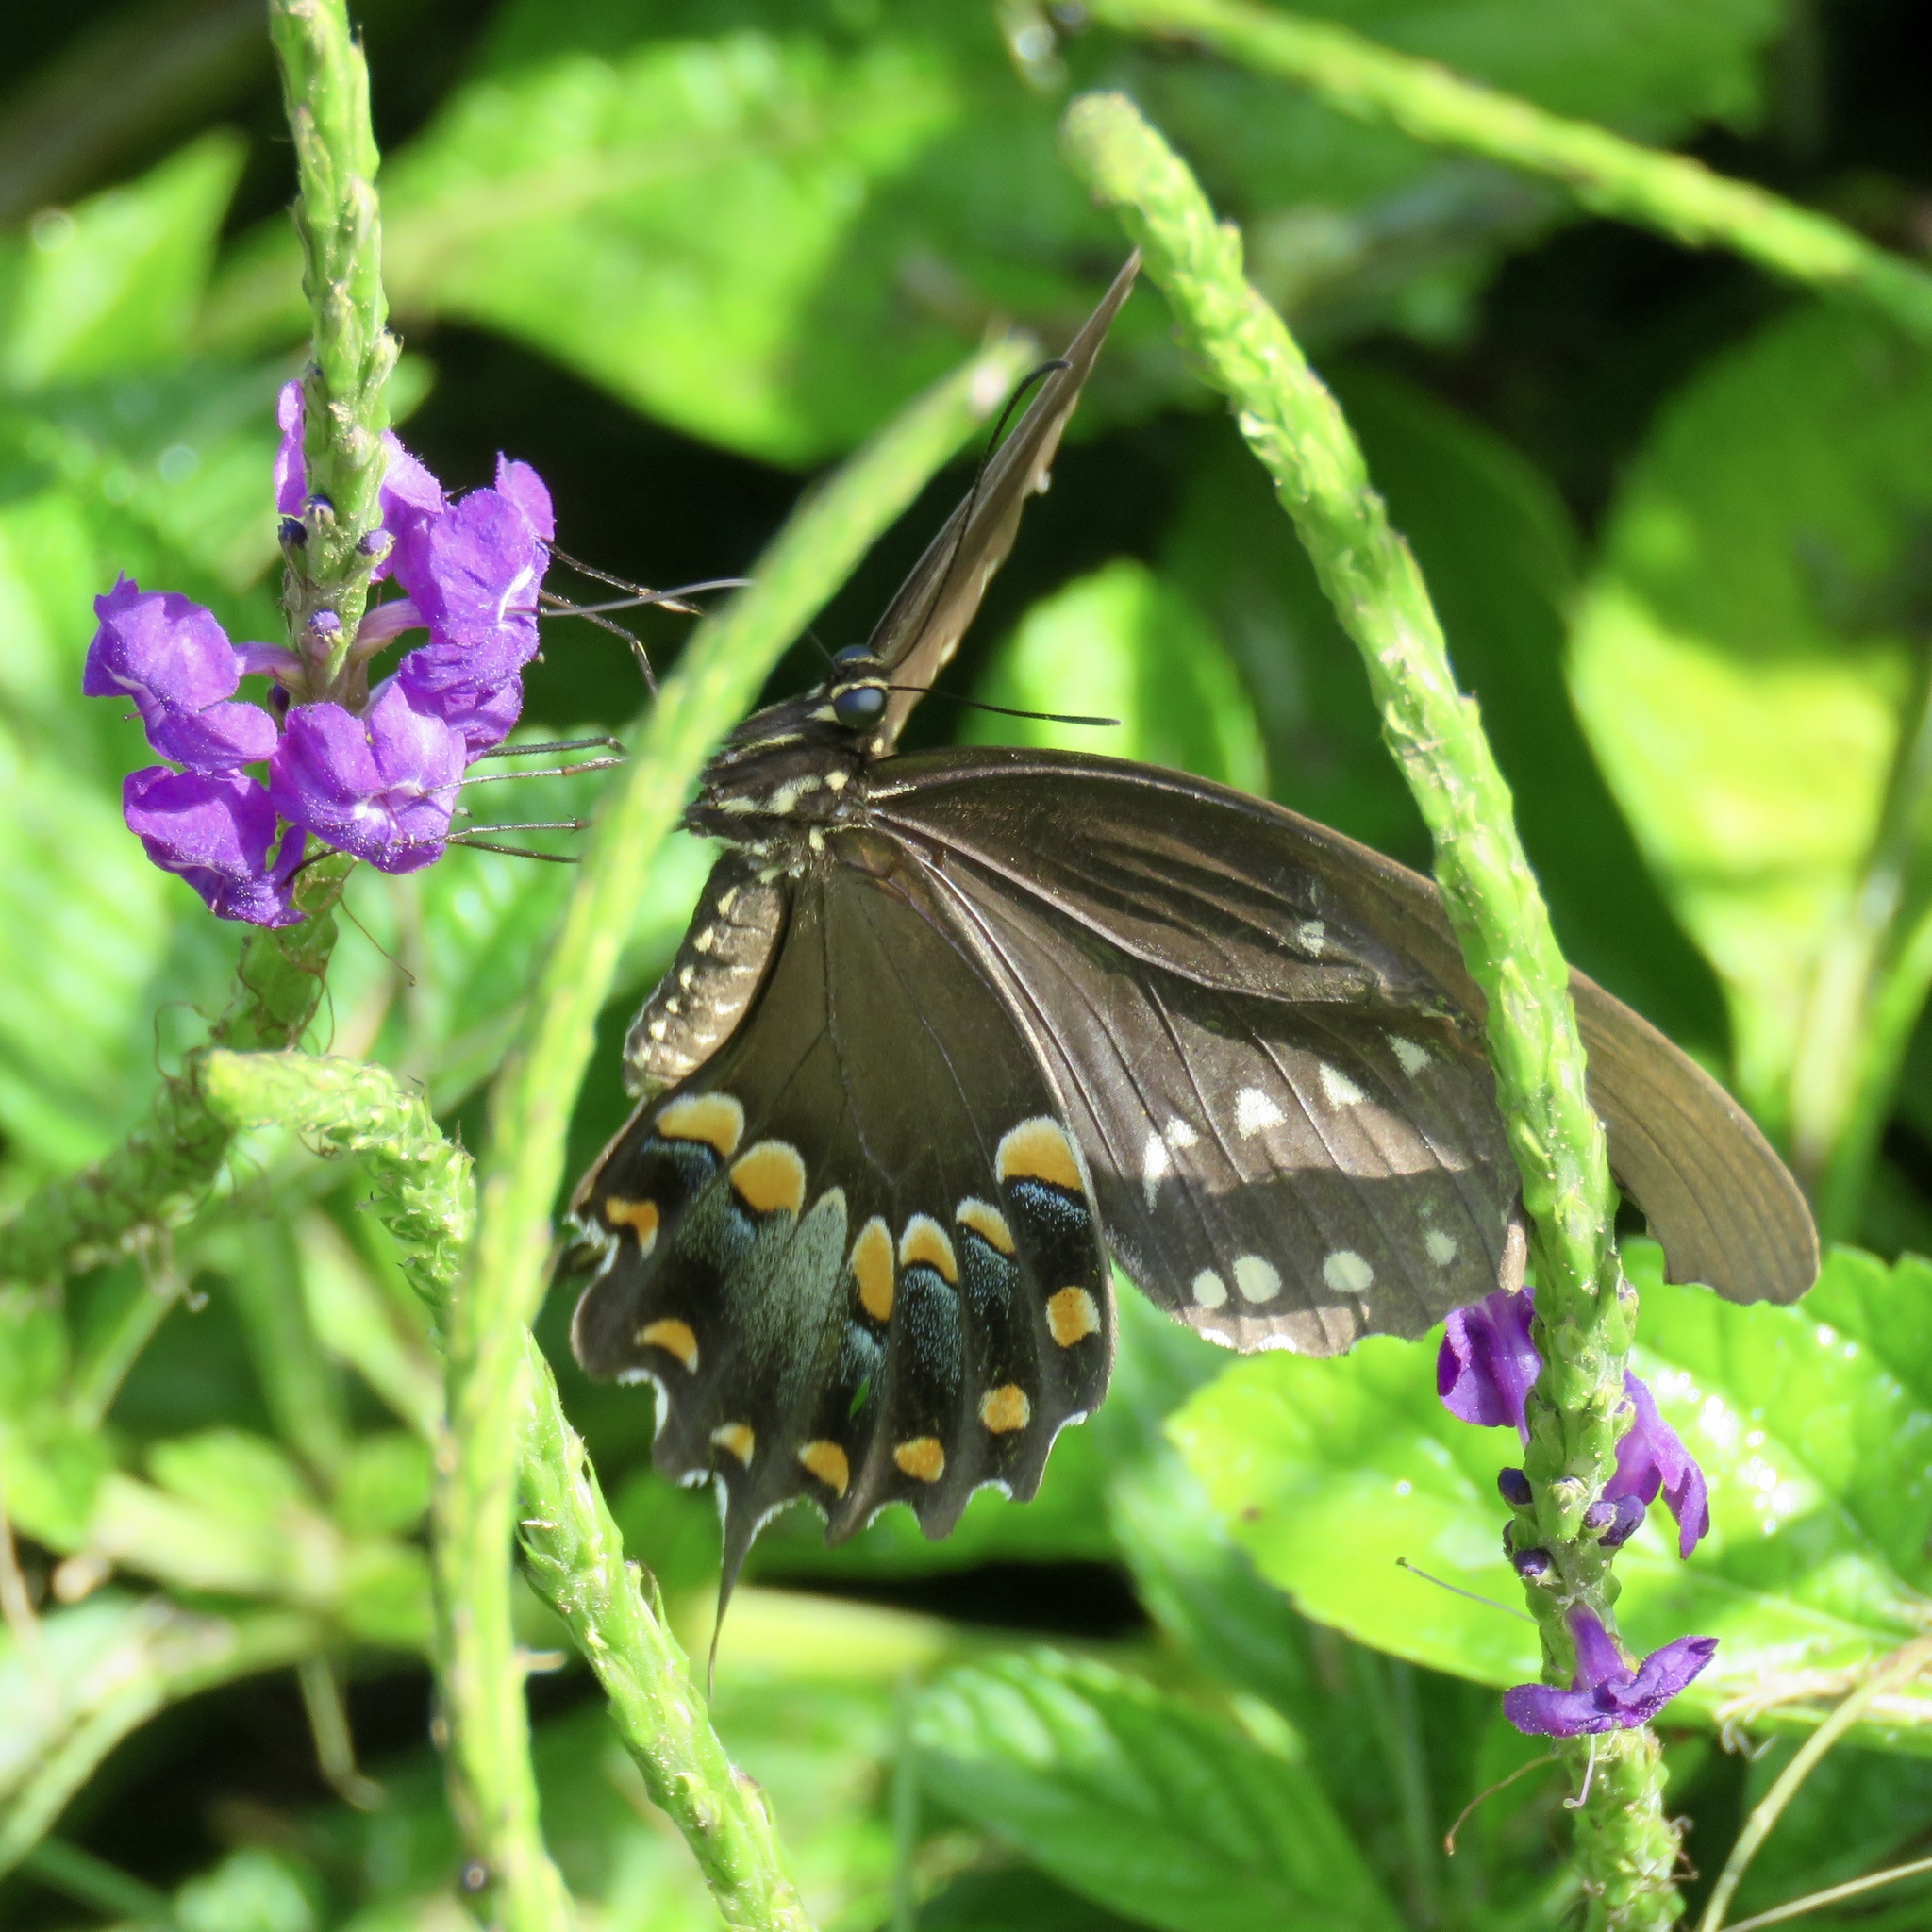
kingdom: Animalia
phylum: Arthropoda
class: Insecta
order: Lepidoptera
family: Papilionidae
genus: Papilio
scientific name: Papilio troilus
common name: Spicebush swallowtail
